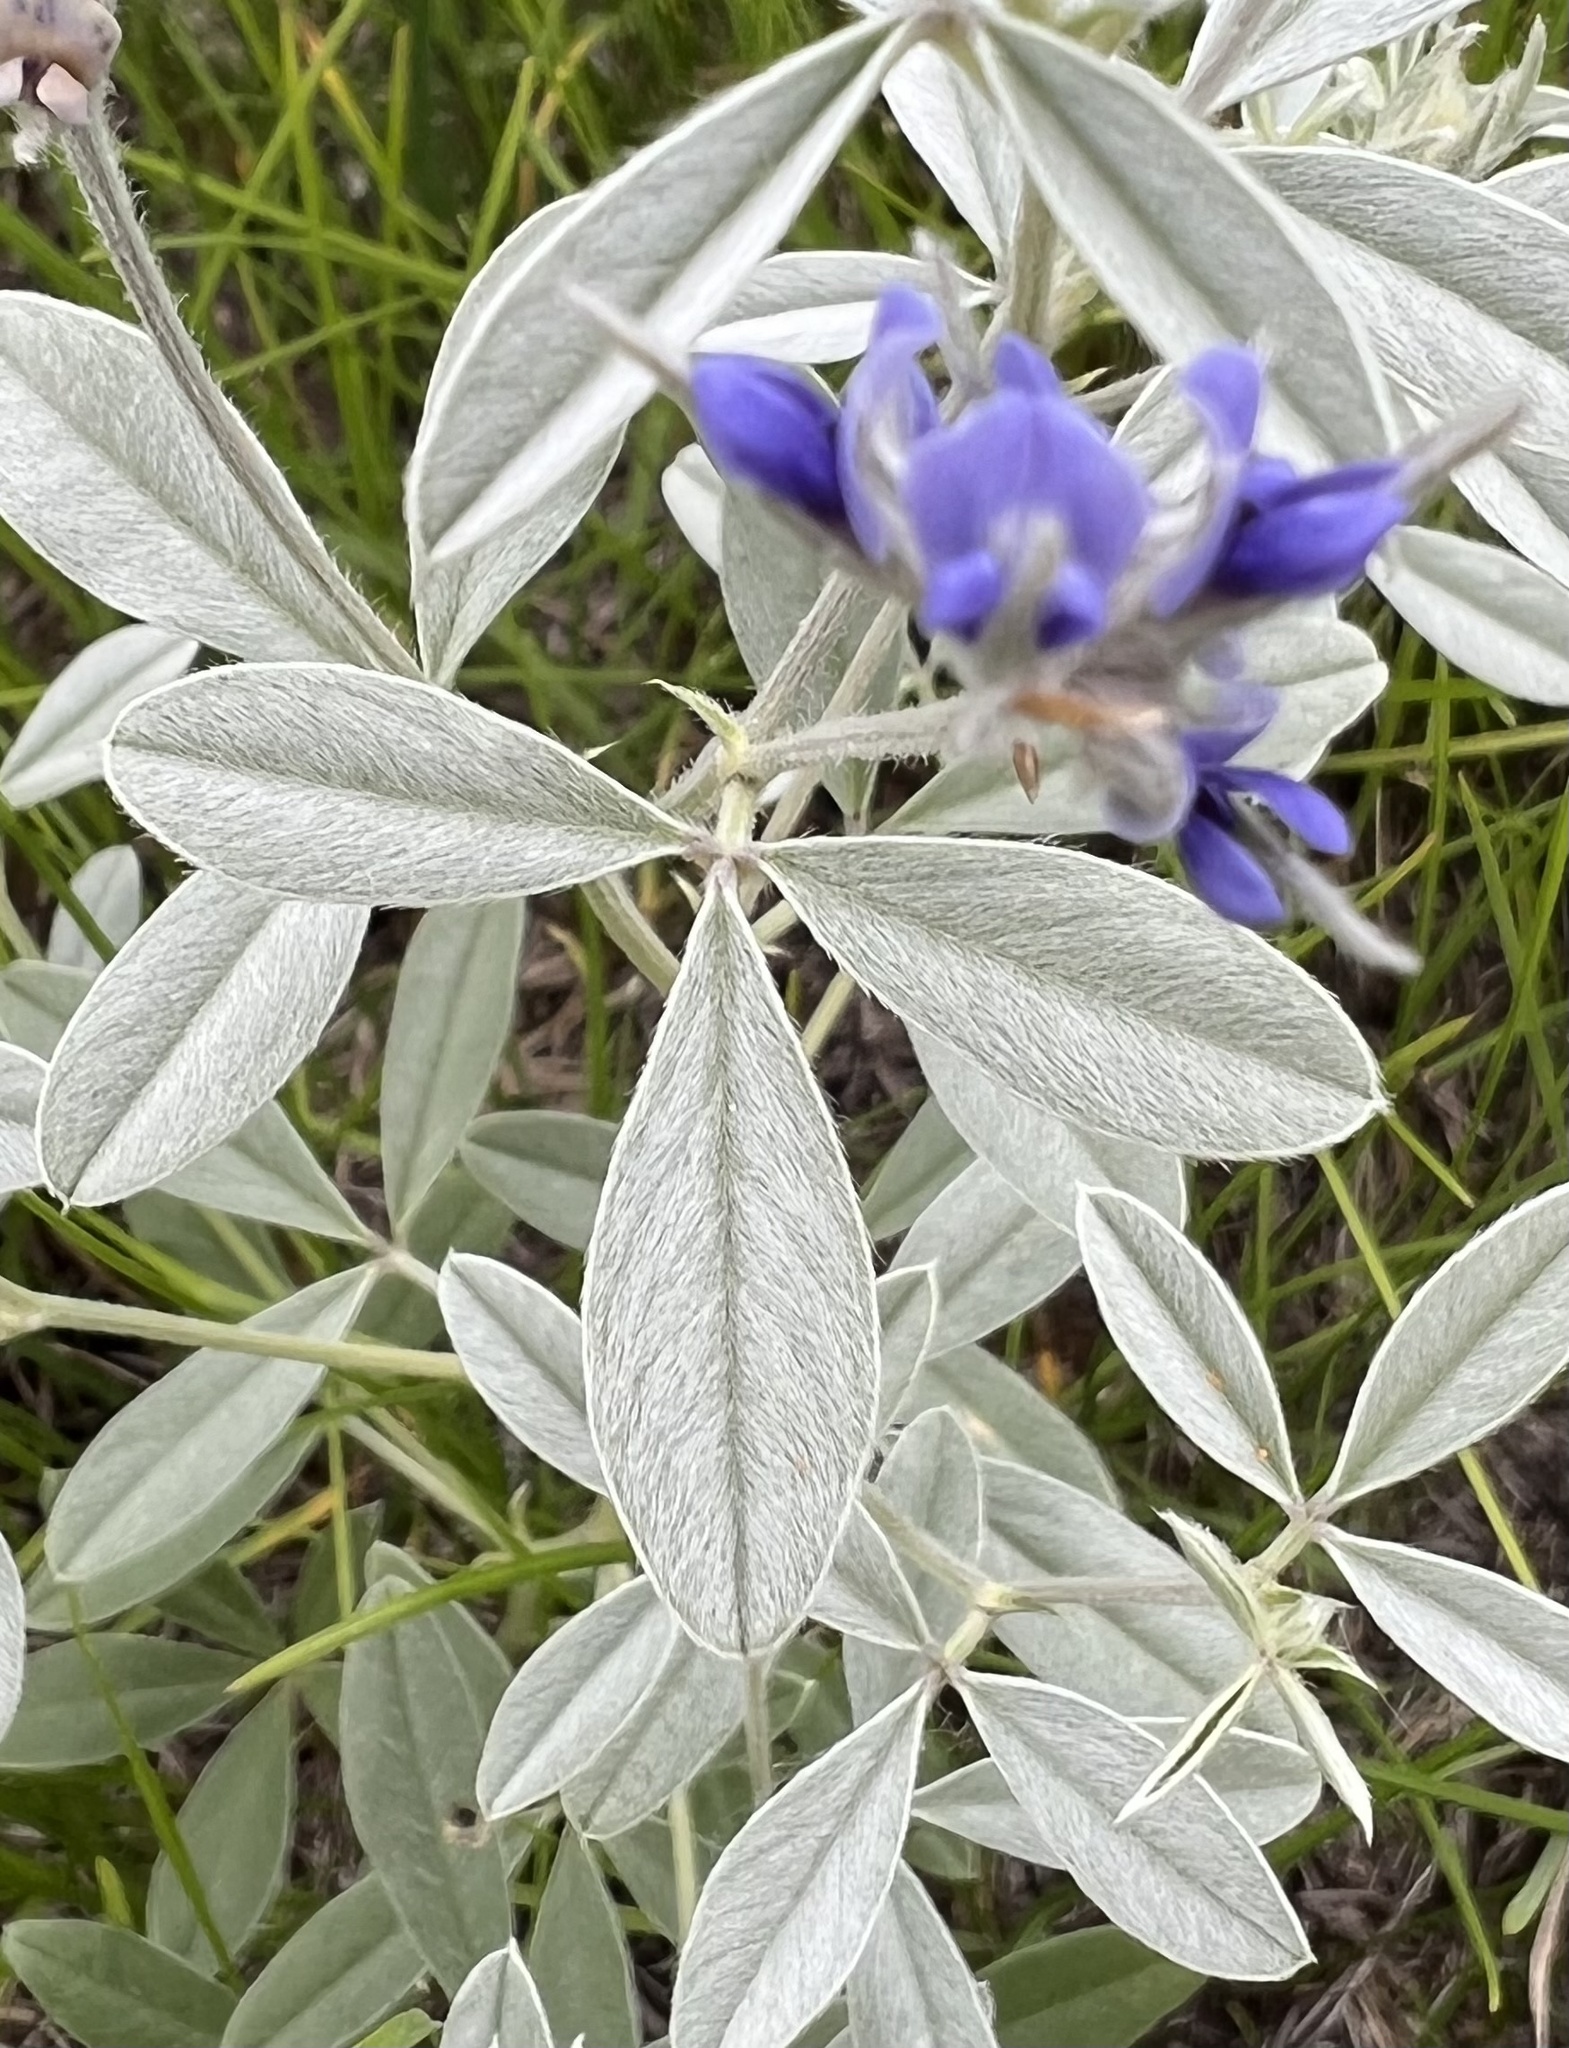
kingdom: Plantae
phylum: Tracheophyta
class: Magnoliopsida
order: Fabales
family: Fabaceae
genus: Pediomelum
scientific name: Pediomelum argophyllum
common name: Silver-leaved indian breadroot
